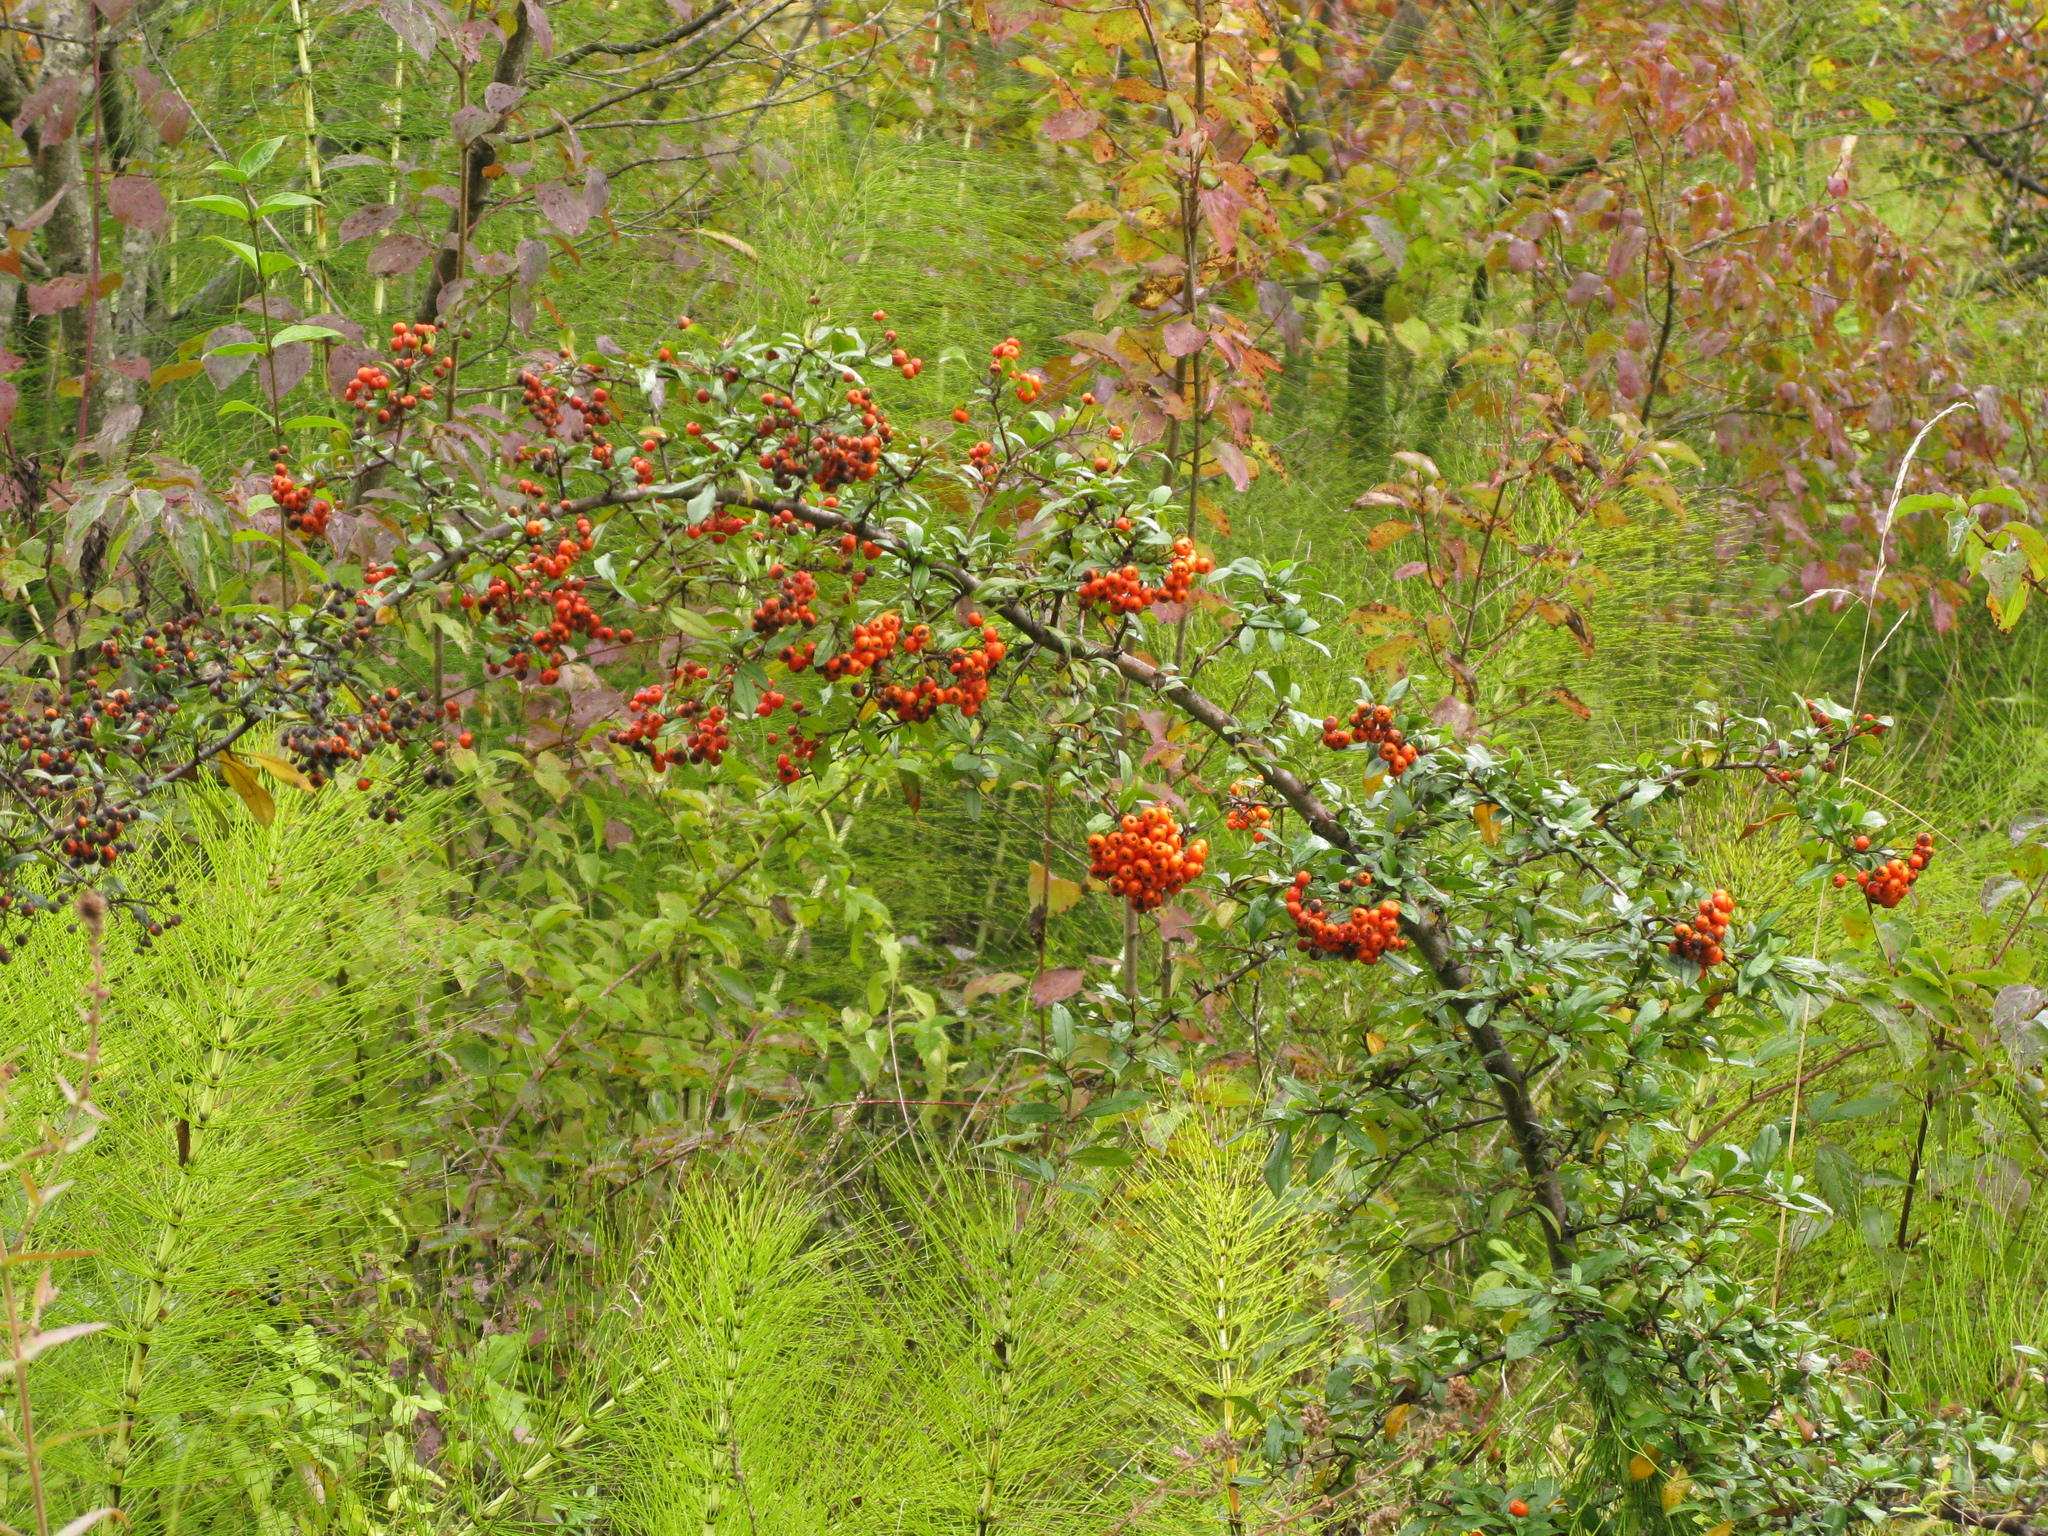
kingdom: Plantae
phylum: Tracheophyta
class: Magnoliopsida
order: Rosales
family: Rosaceae
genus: Pyracantha
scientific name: Pyracantha coccinea
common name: Firethorn
